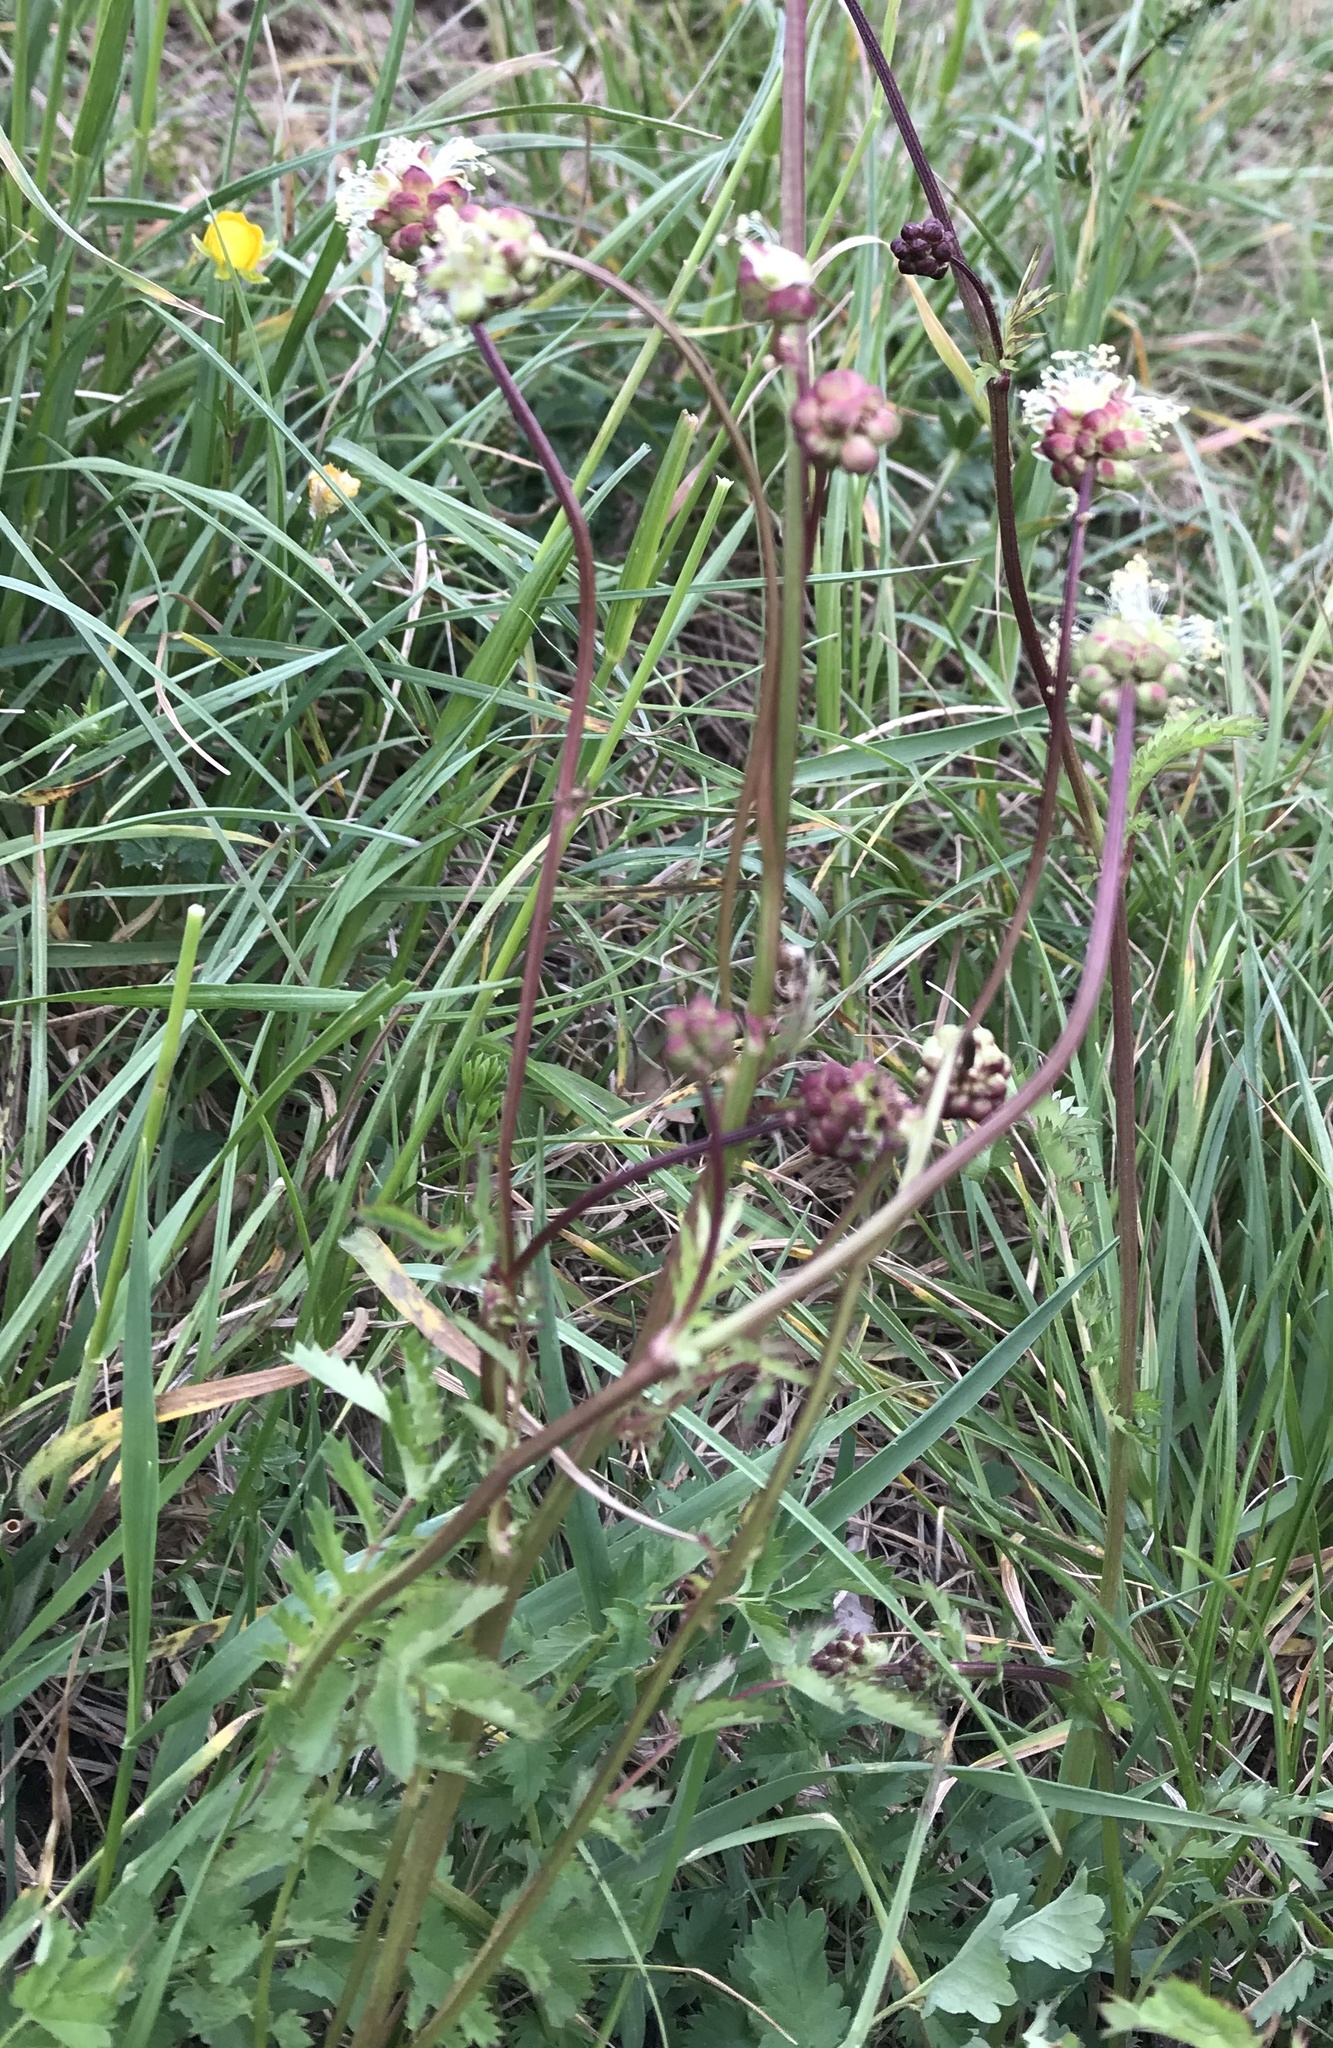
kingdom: Plantae
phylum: Tracheophyta
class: Magnoliopsida
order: Rosales
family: Rosaceae
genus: Poterium
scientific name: Poterium sanguisorba
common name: Salad burnet
